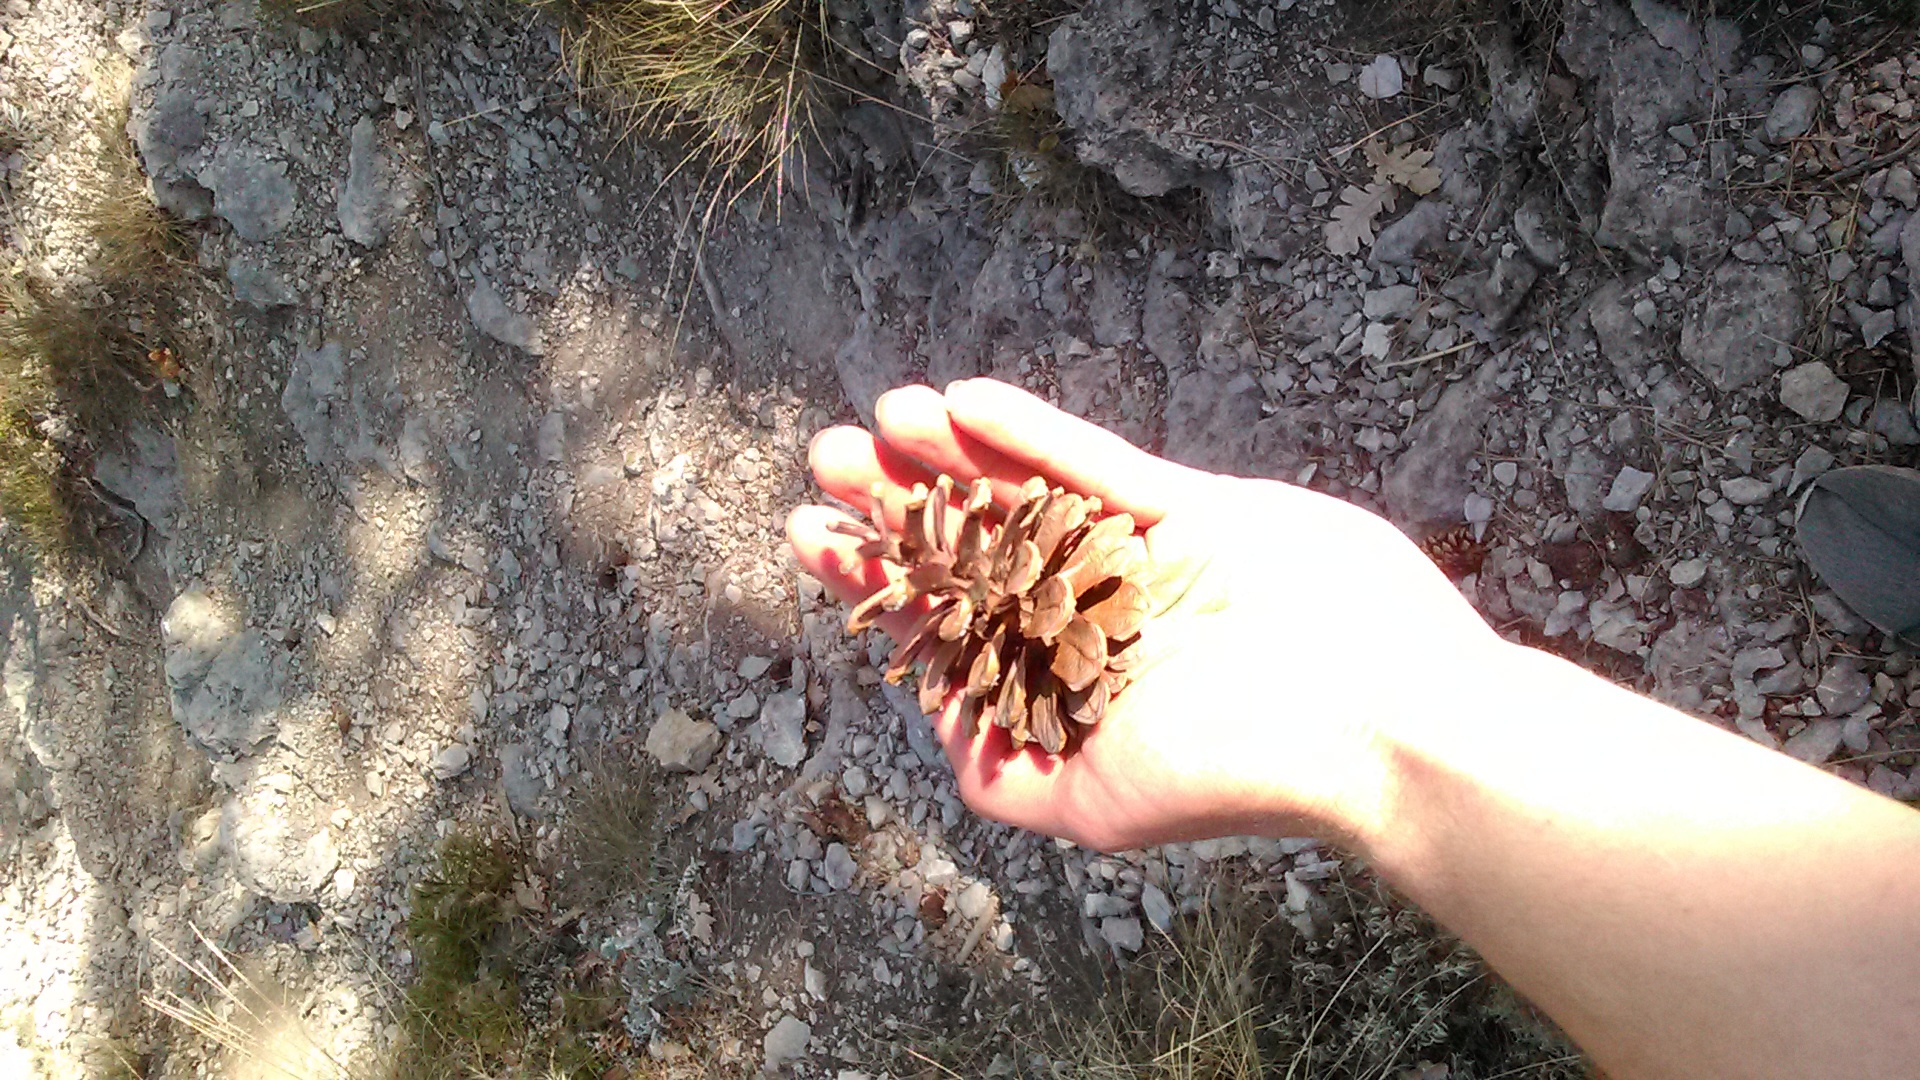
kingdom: Plantae
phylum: Tracheophyta
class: Pinopsida
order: Pinales
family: Pinaceae
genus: Pinus
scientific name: Pinus nigra
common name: Austrian pine
